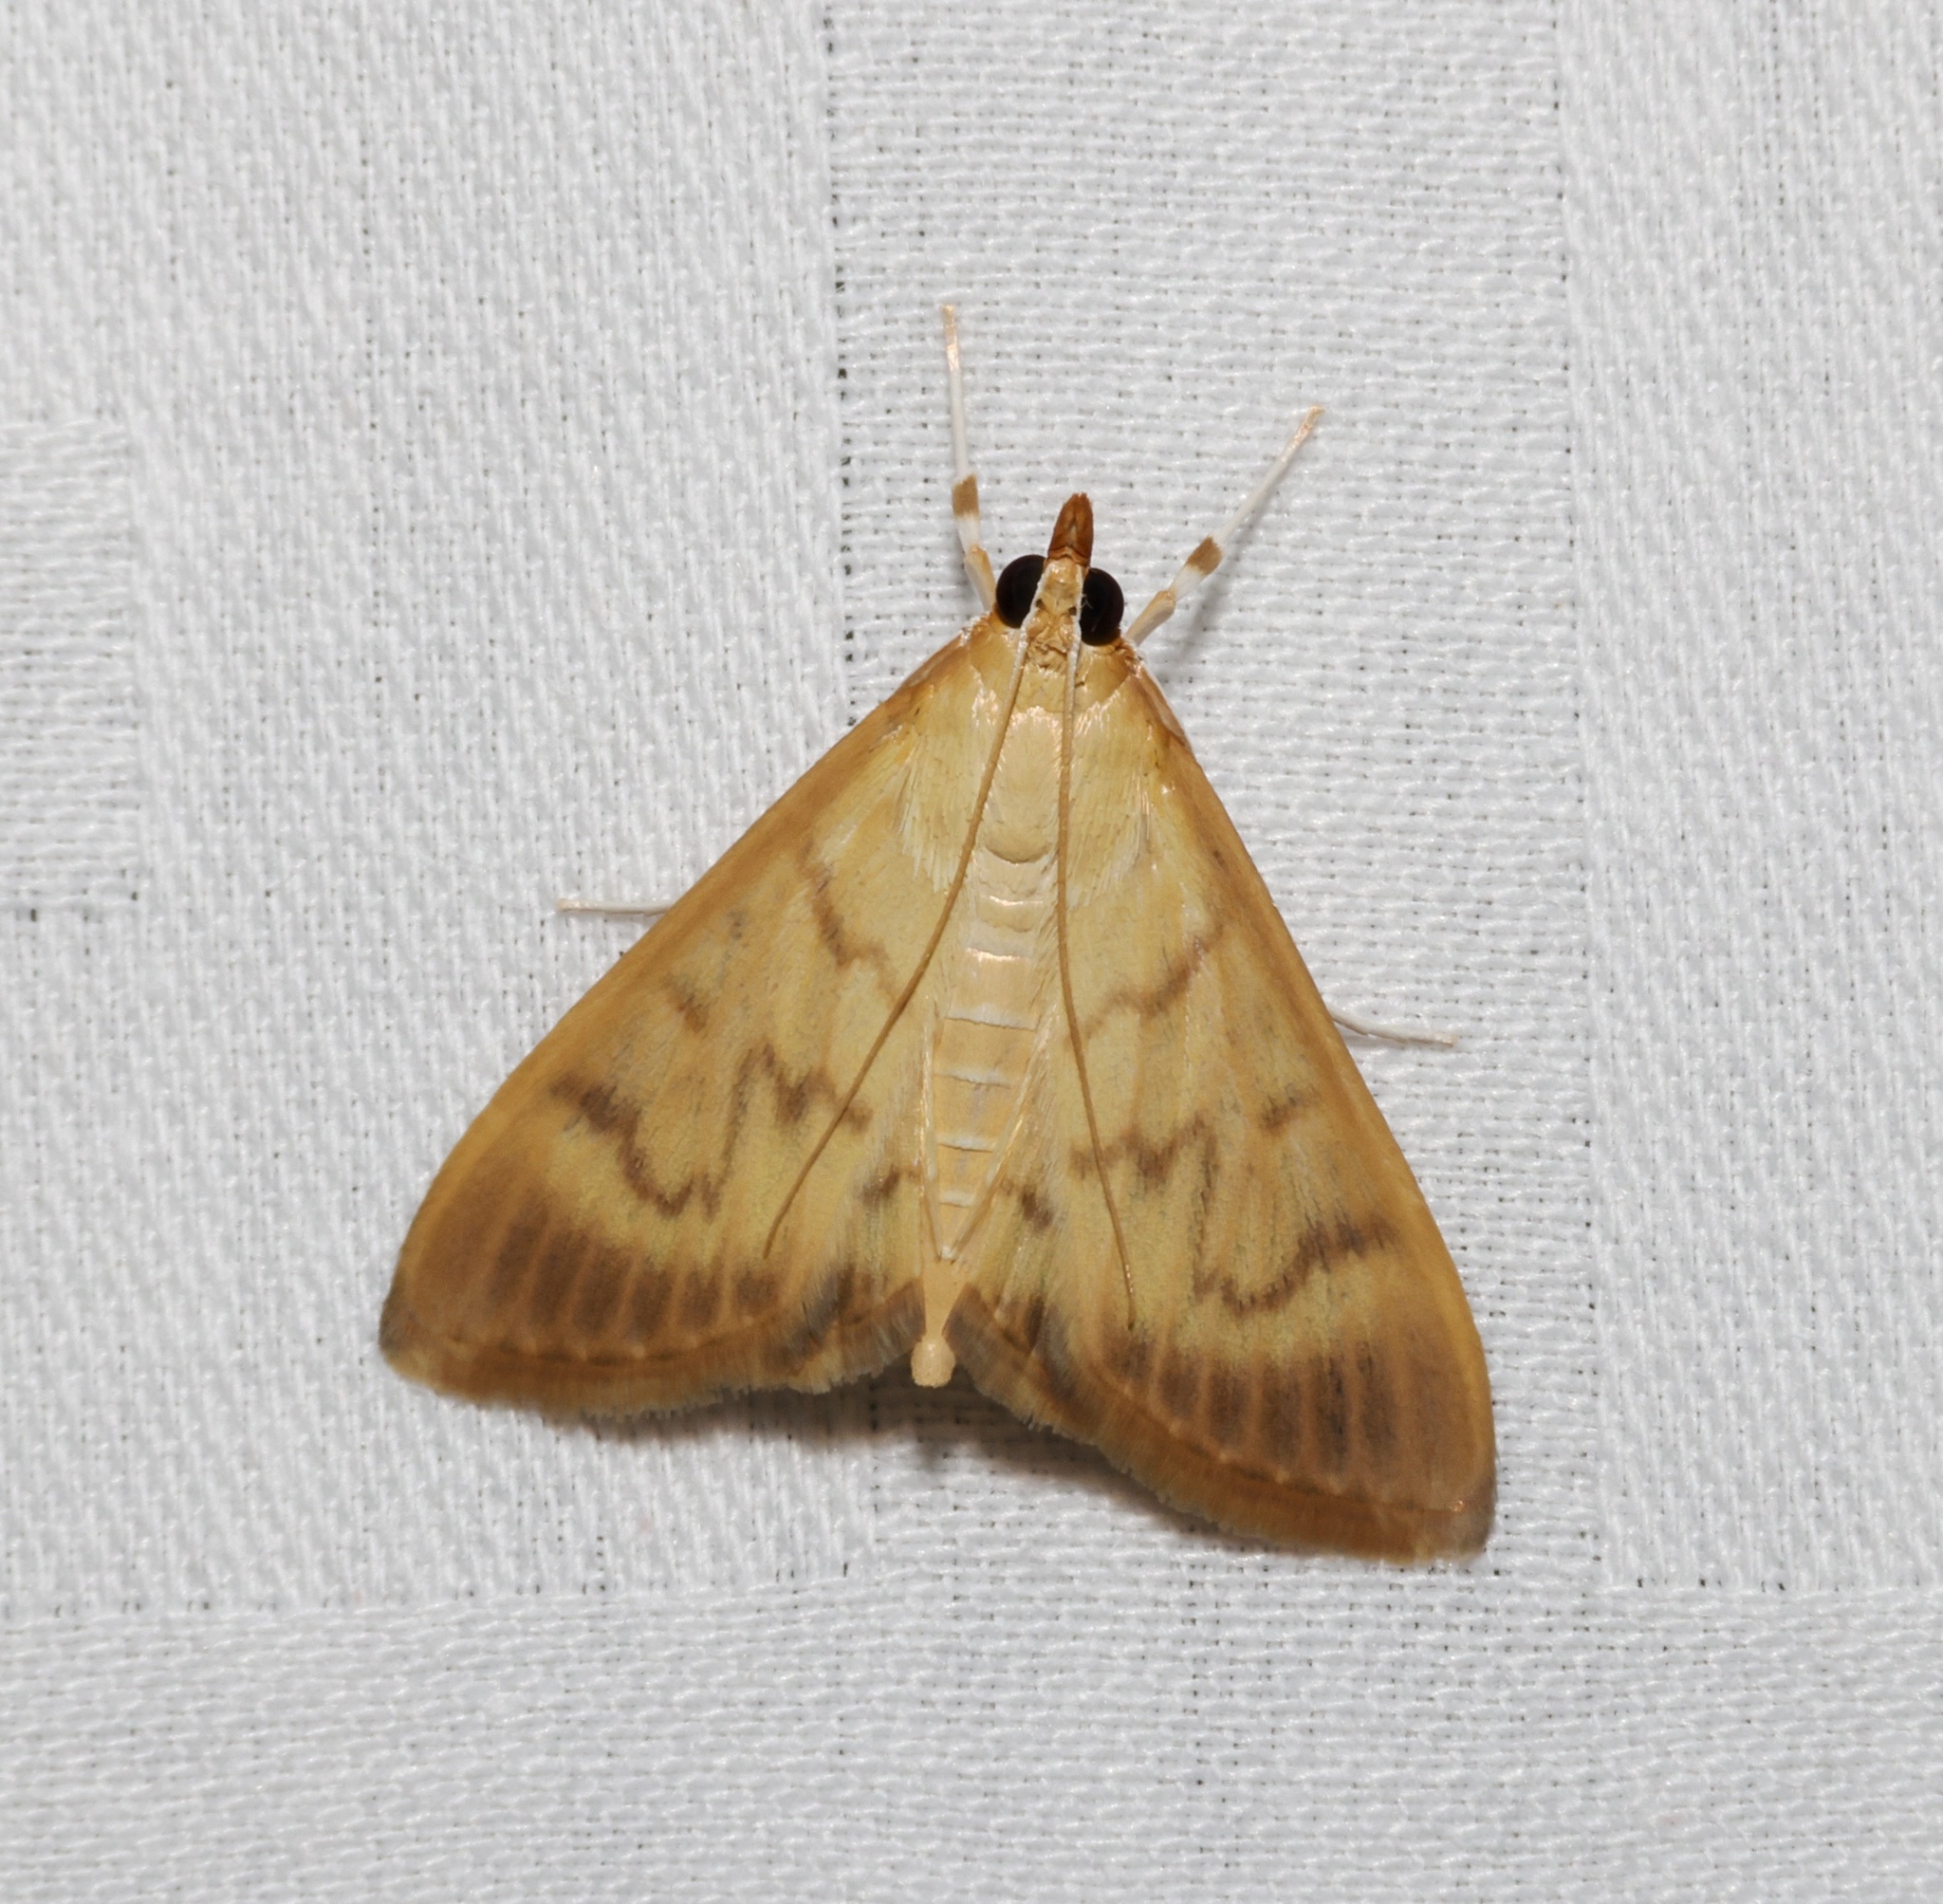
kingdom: Animalia
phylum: Arthropoda
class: Insecta
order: Lepidoptera
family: Crambidae
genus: Crypsiptya
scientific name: Crypsiptya coclesalis
